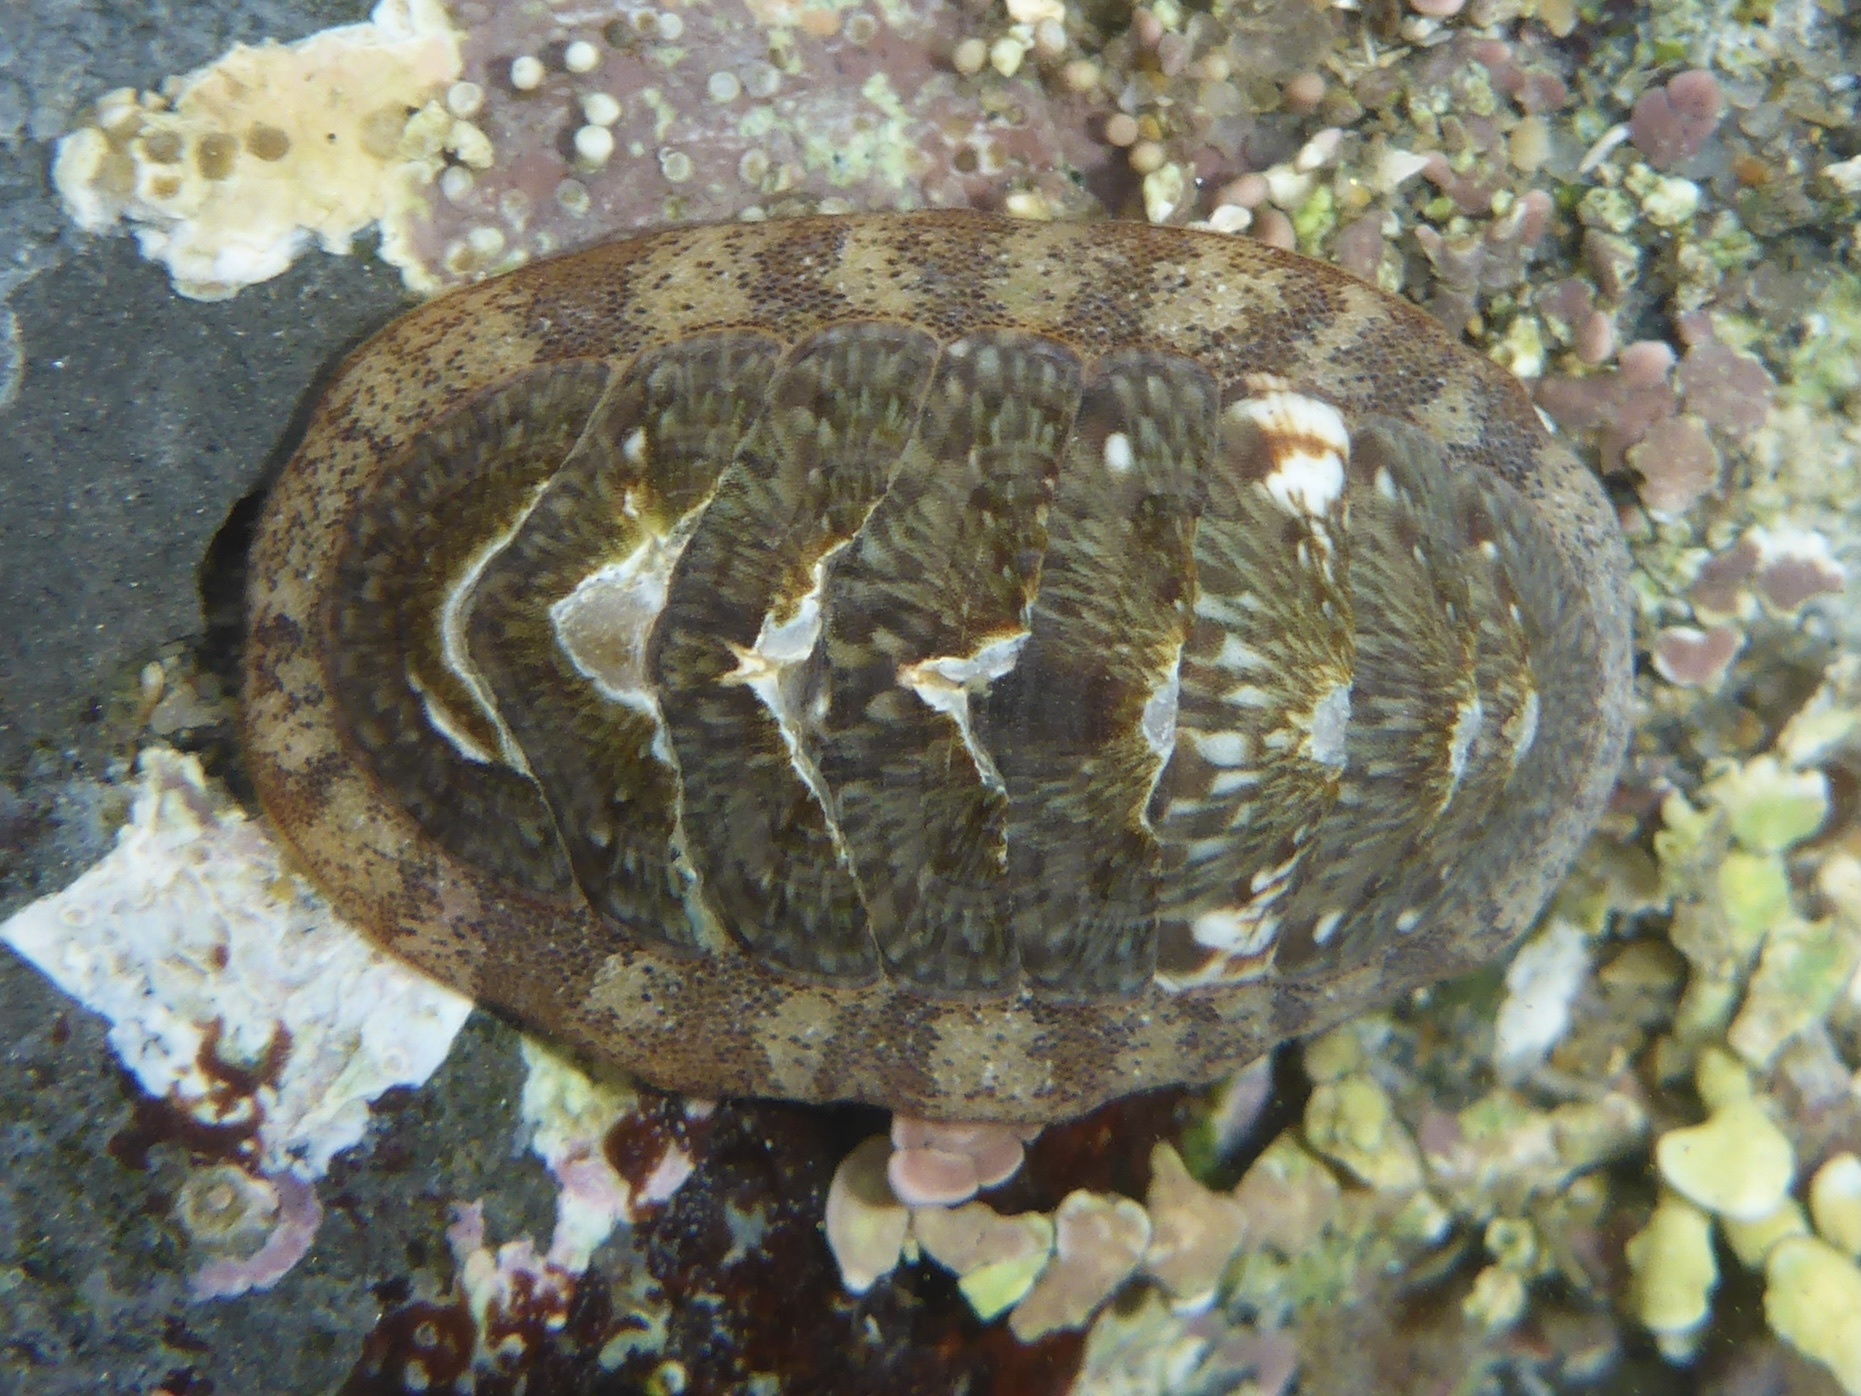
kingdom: Animalia
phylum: Mollusca
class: Polyplacophora
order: Chitonida
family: Ischnochitonidae
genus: Lepidozona
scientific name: Lepidozona radians
